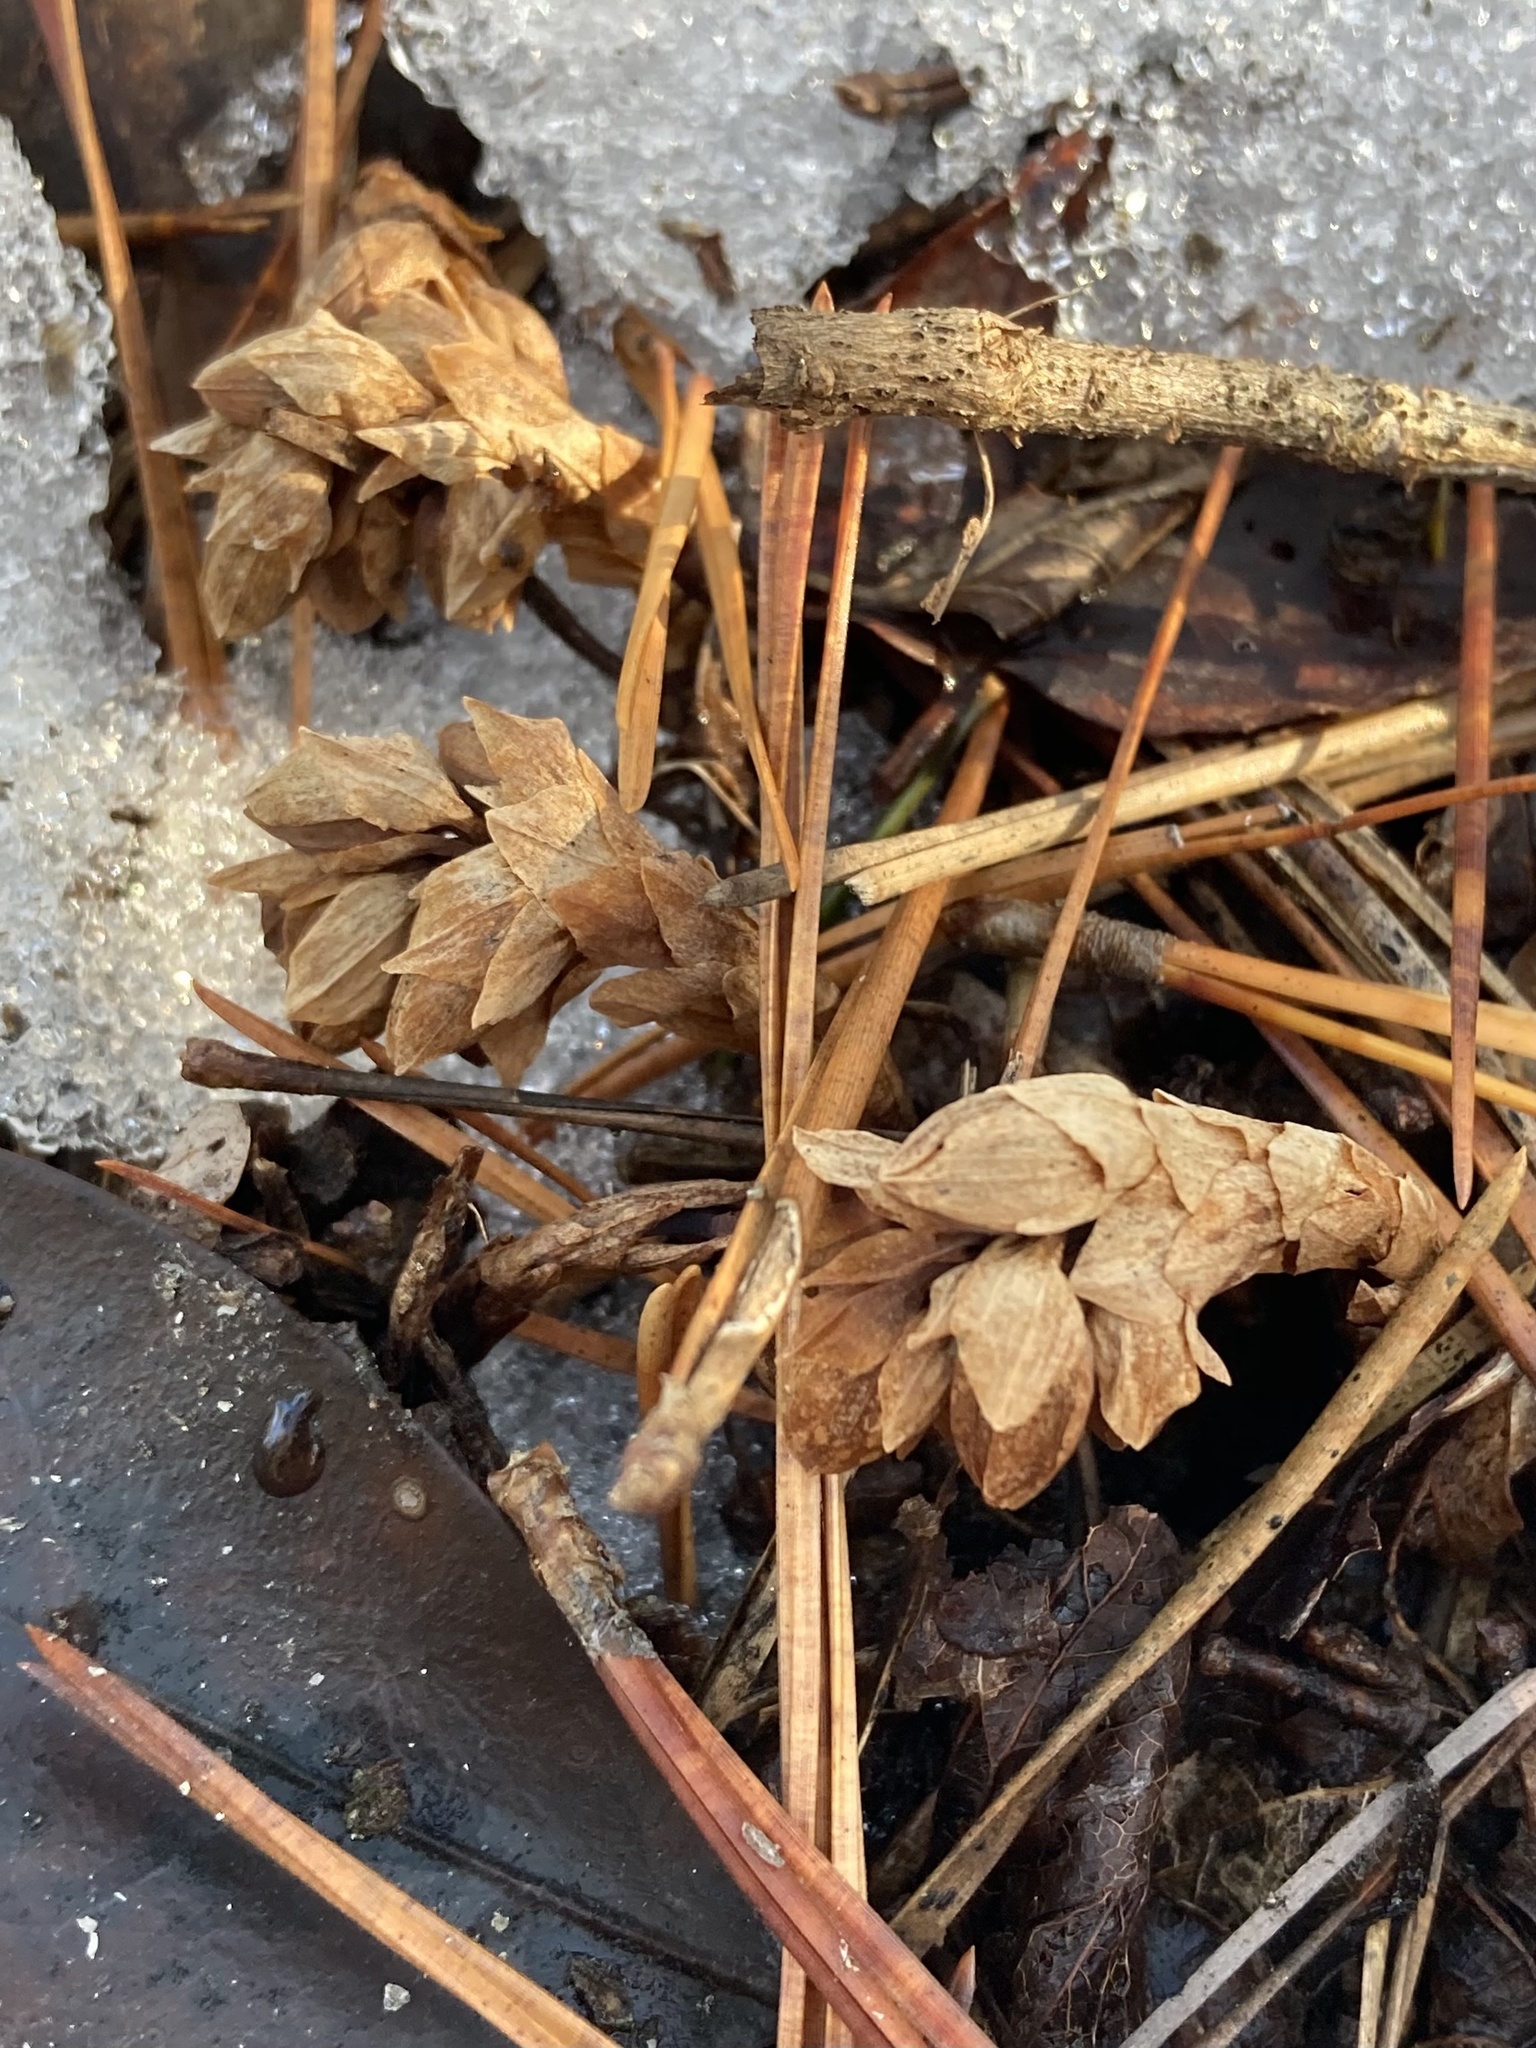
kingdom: Plantae
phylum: Tracheophyta
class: Magnoliopsida
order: Ericales
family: Ericaceae
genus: Monotropsis
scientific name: Monotropsis odorata
